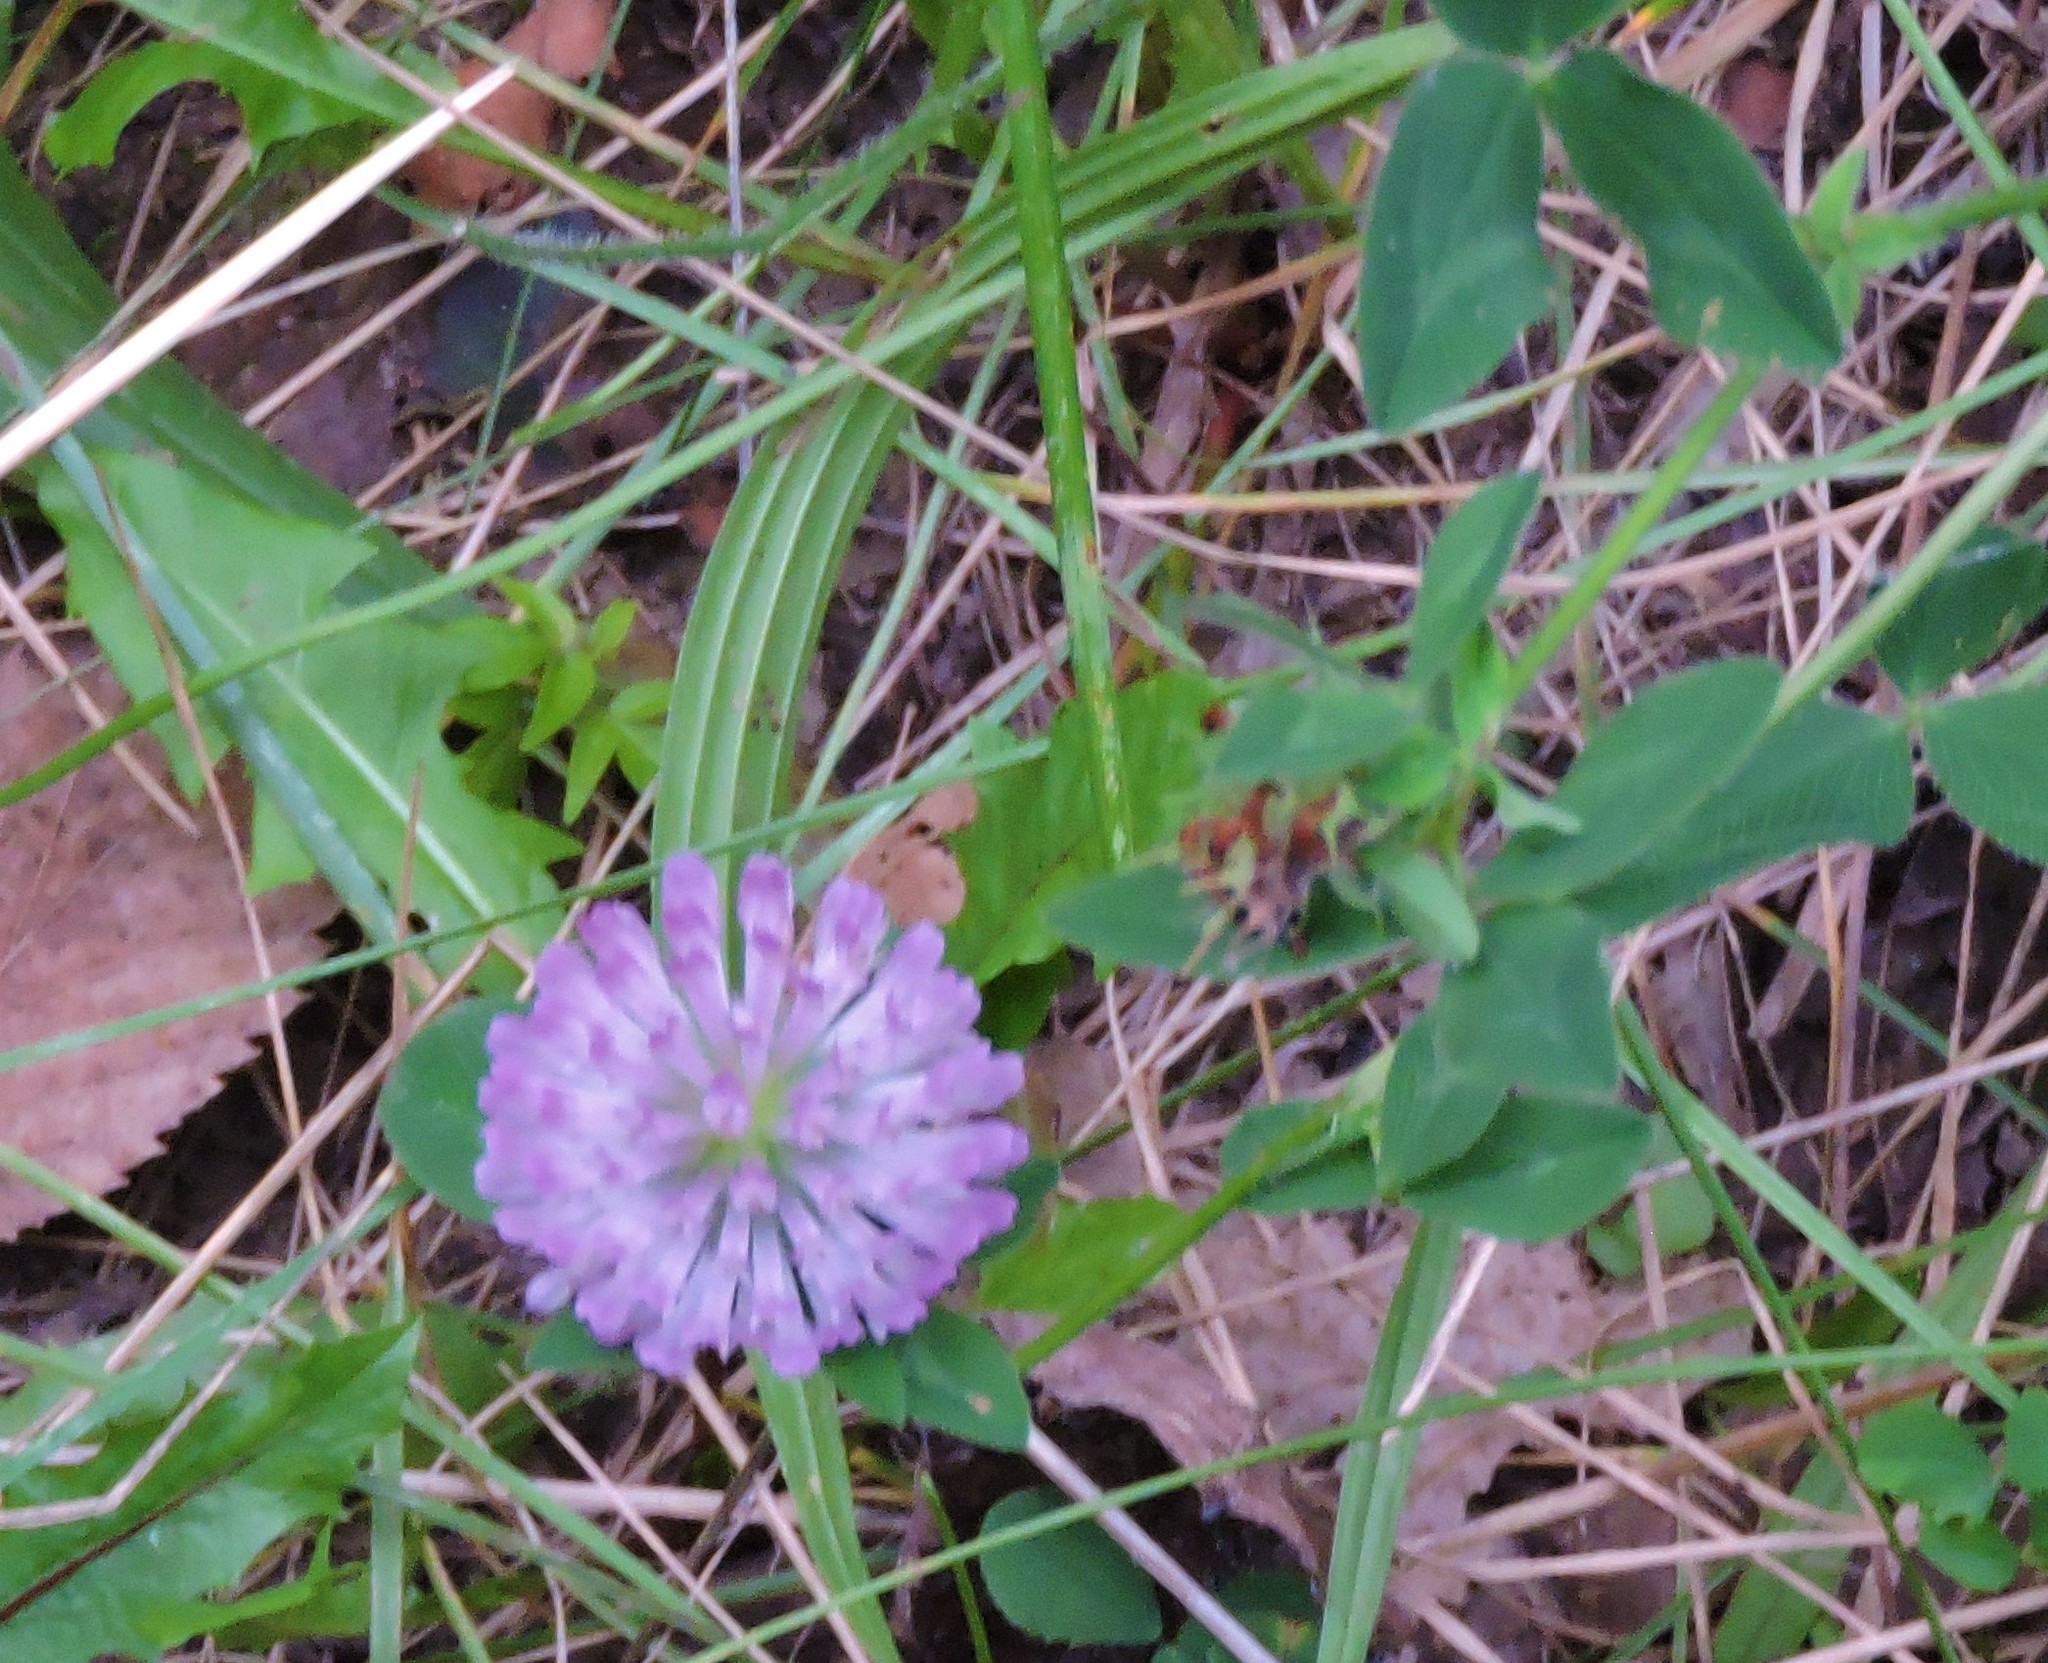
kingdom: Plantae
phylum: Tracheophyta
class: Magnoliopsida
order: Fabales
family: Fabaceae
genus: Trifolium
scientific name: Trifolium pratense
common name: Red clover
